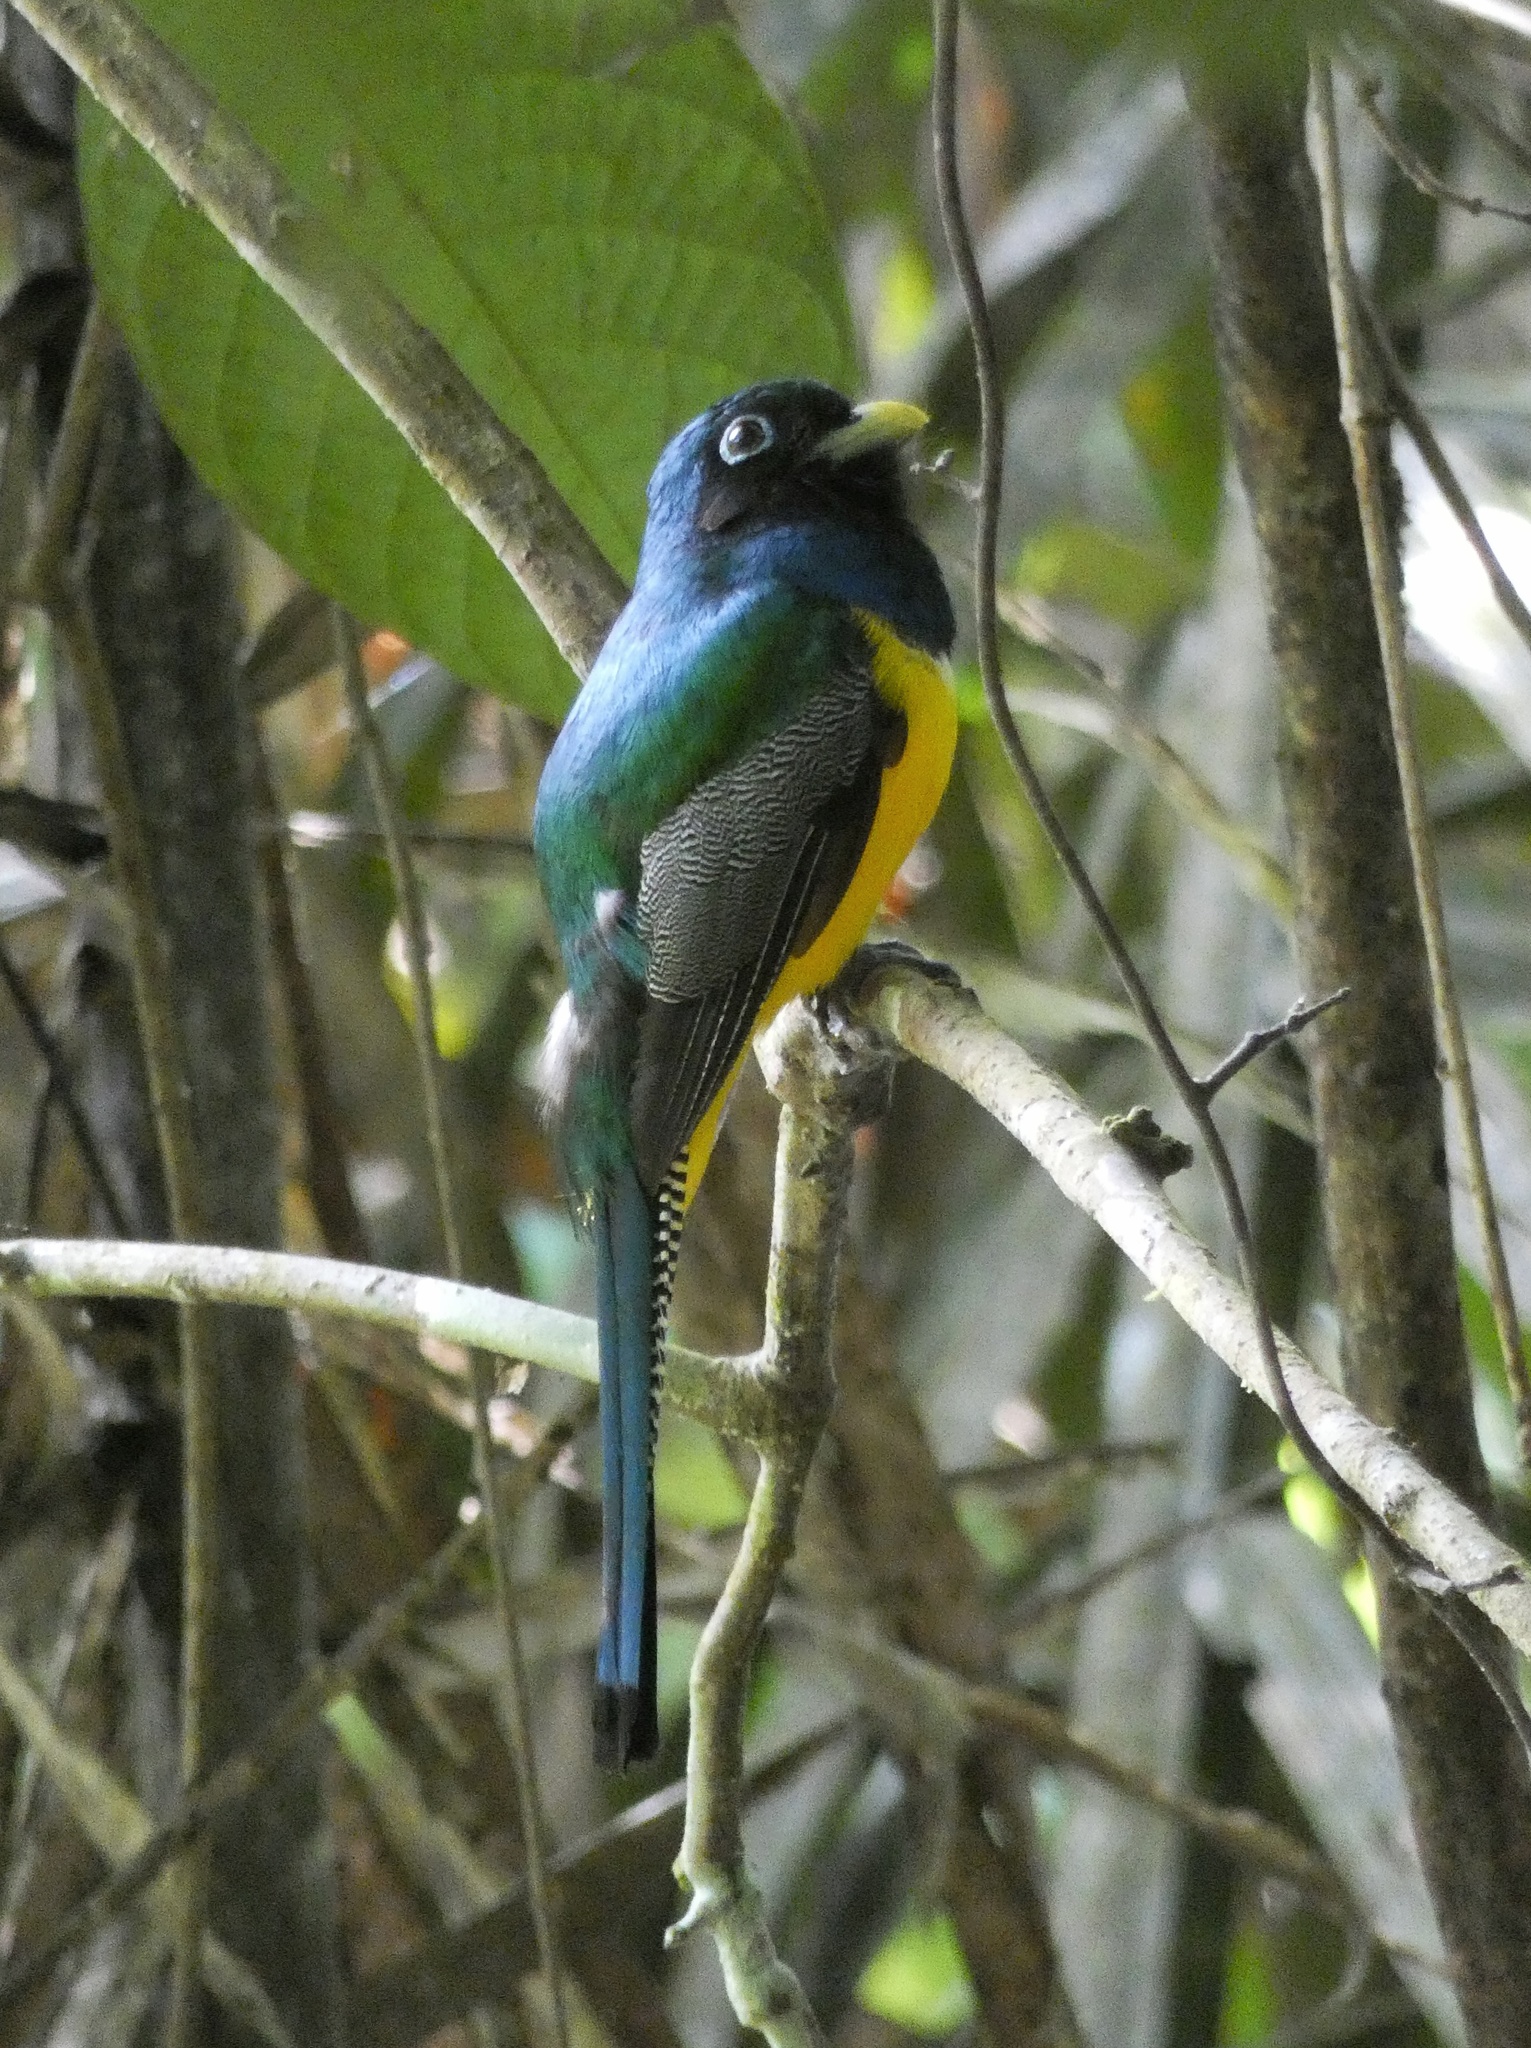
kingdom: Animalia
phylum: Chordata
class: Aves
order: Trogoniformes
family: Trogonidae
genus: Trogon
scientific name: Trogon rufus
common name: Black-throated trogon
